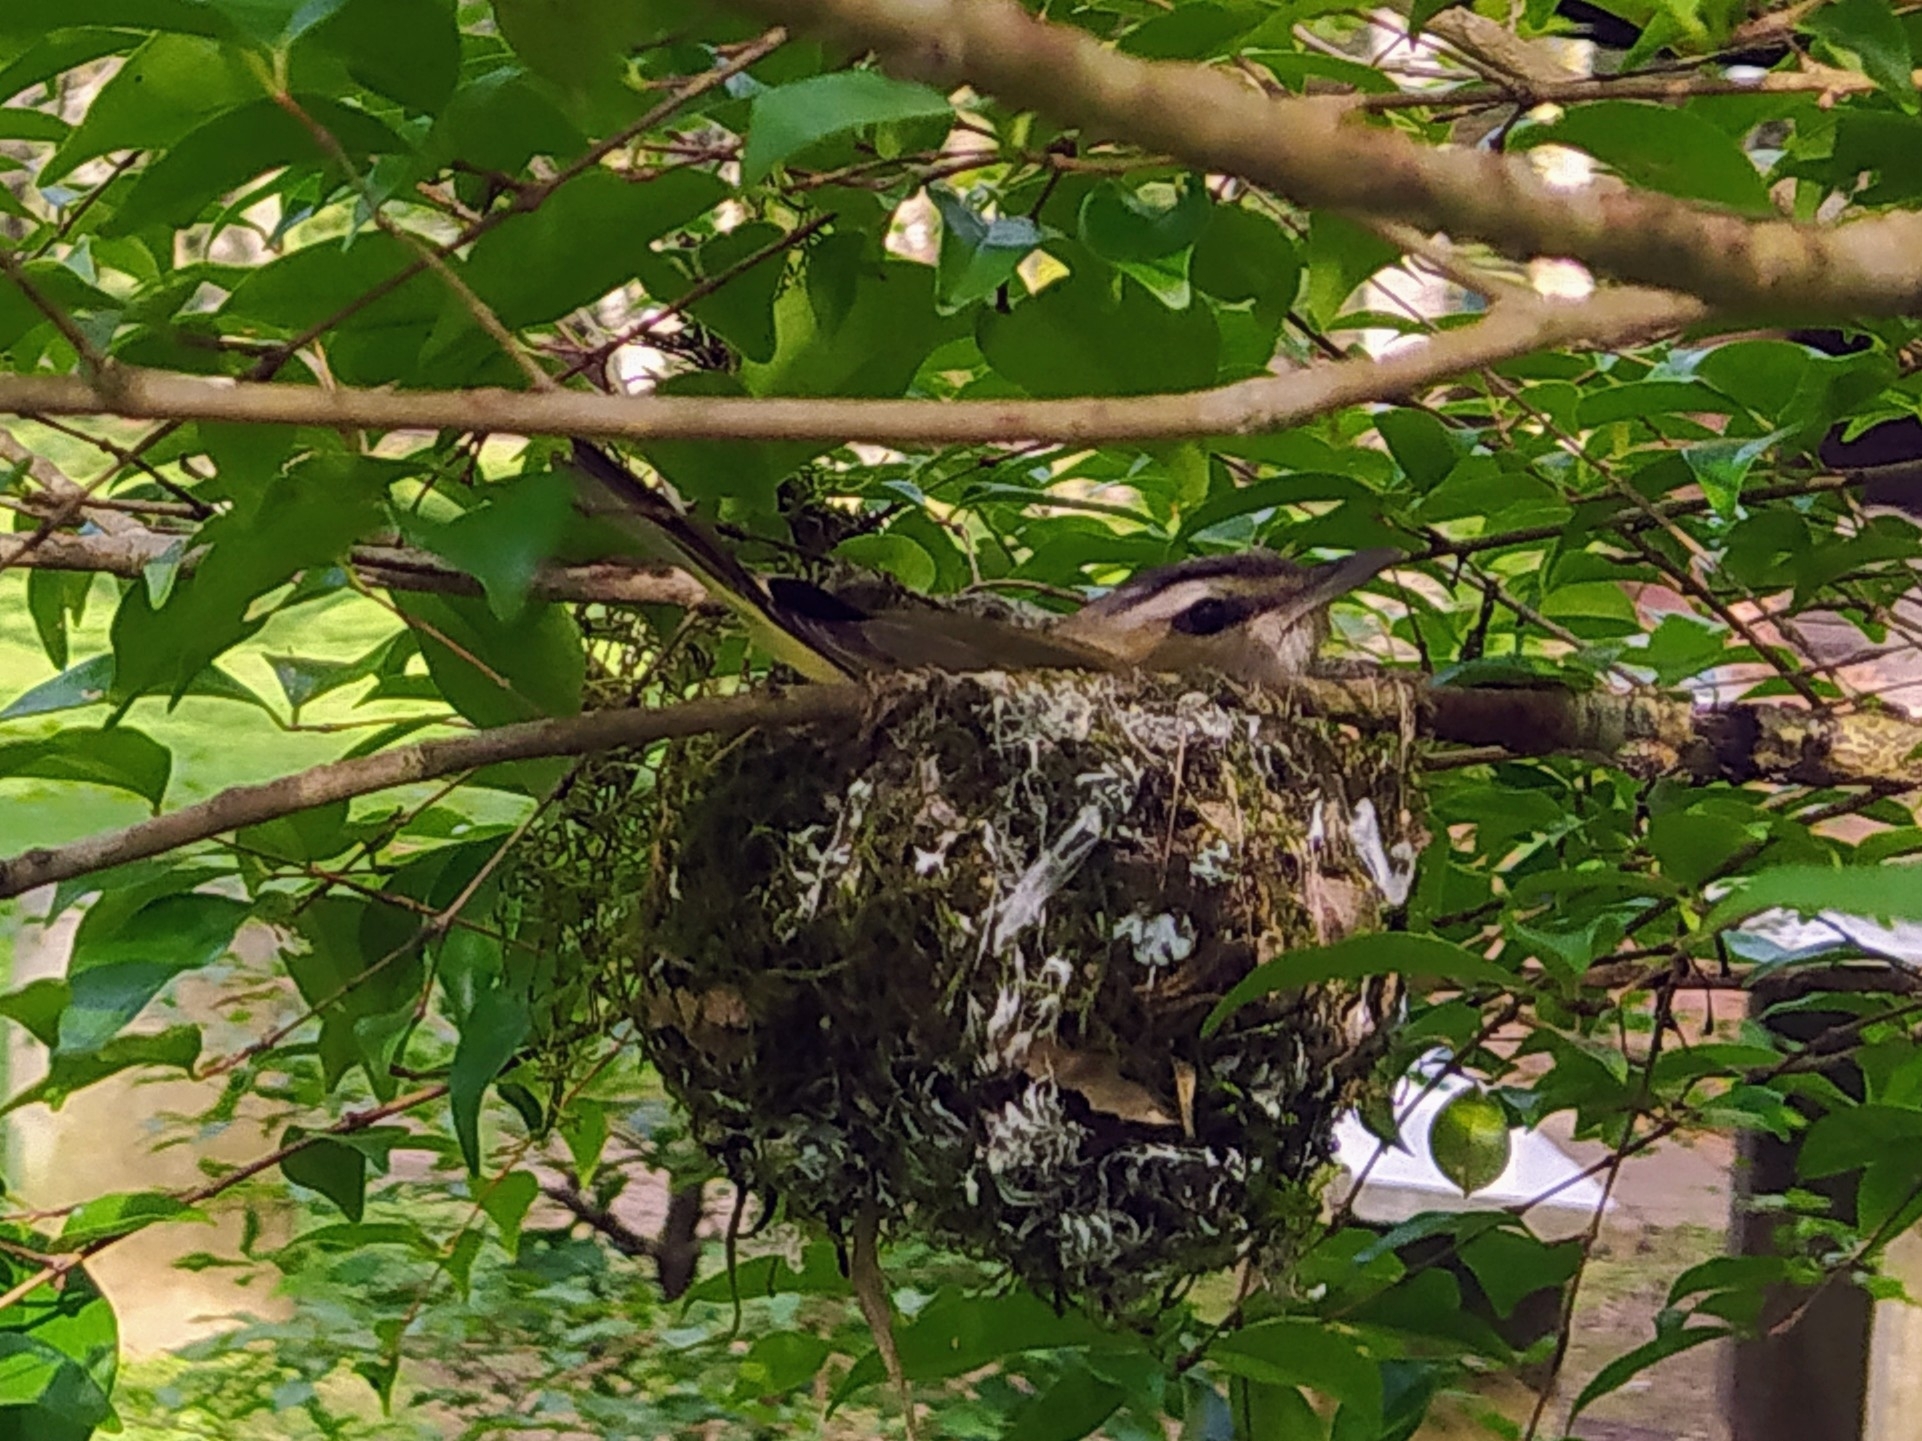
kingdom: Animalia
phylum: Chordata
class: Aves
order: Passeriformes
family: Vireonidae
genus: Vireo
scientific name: Vireo olivaceus
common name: Red-eyed vireo
